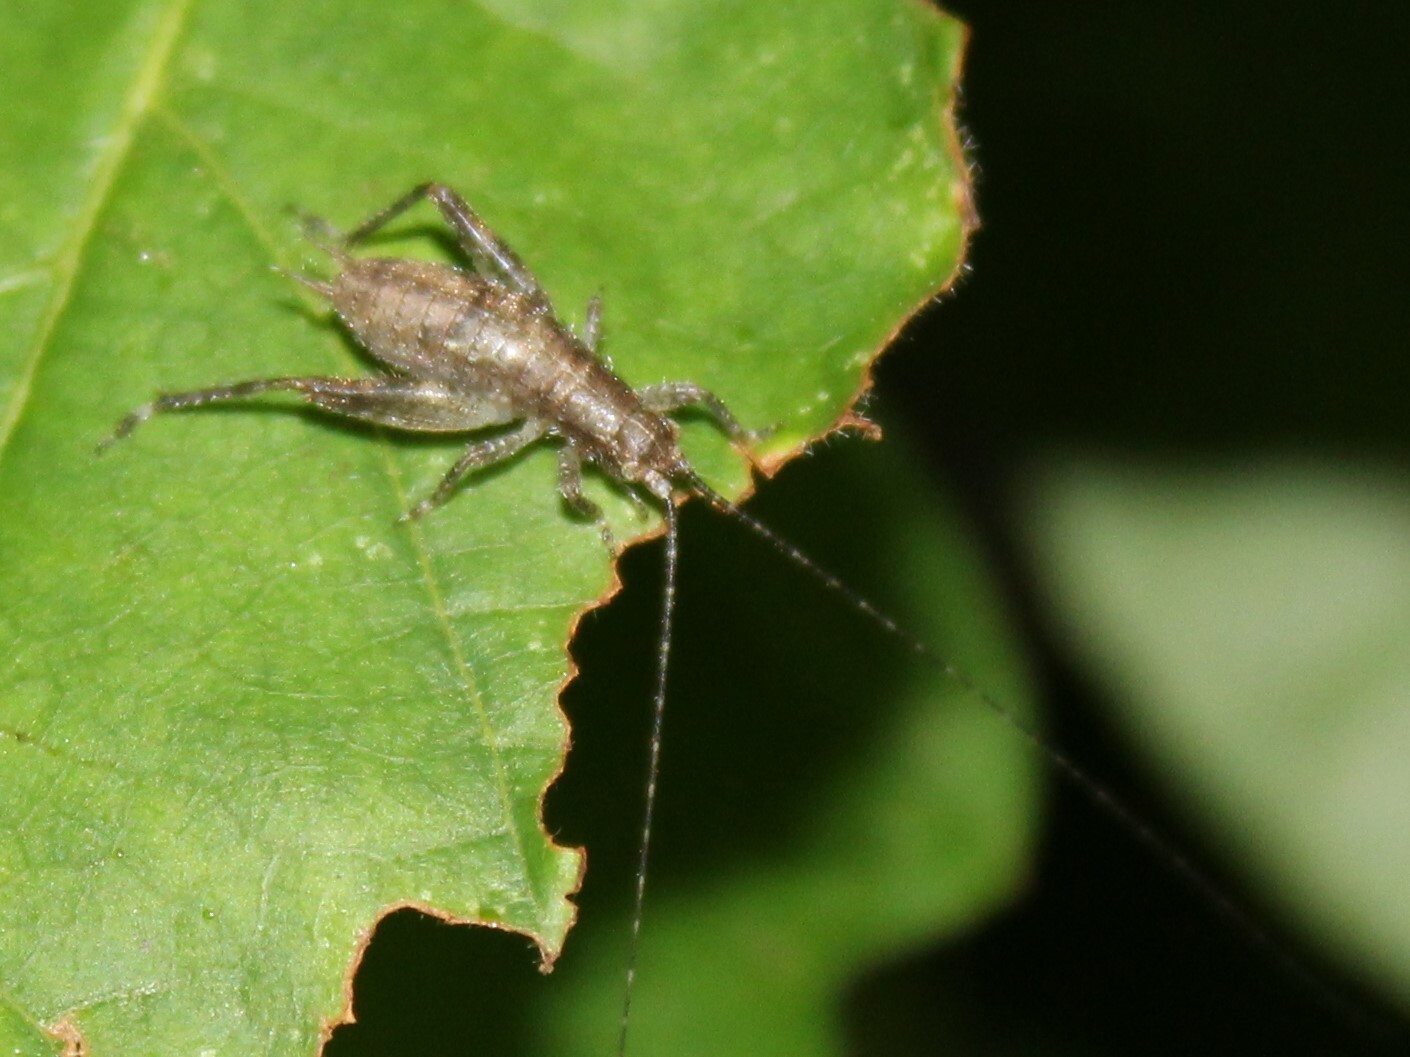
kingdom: Animalia
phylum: Arthropoda
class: Insecta
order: Orthoptera
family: Gryllidae
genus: Hapithus
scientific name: Hapithus saltator
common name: Jumping bush cricket
